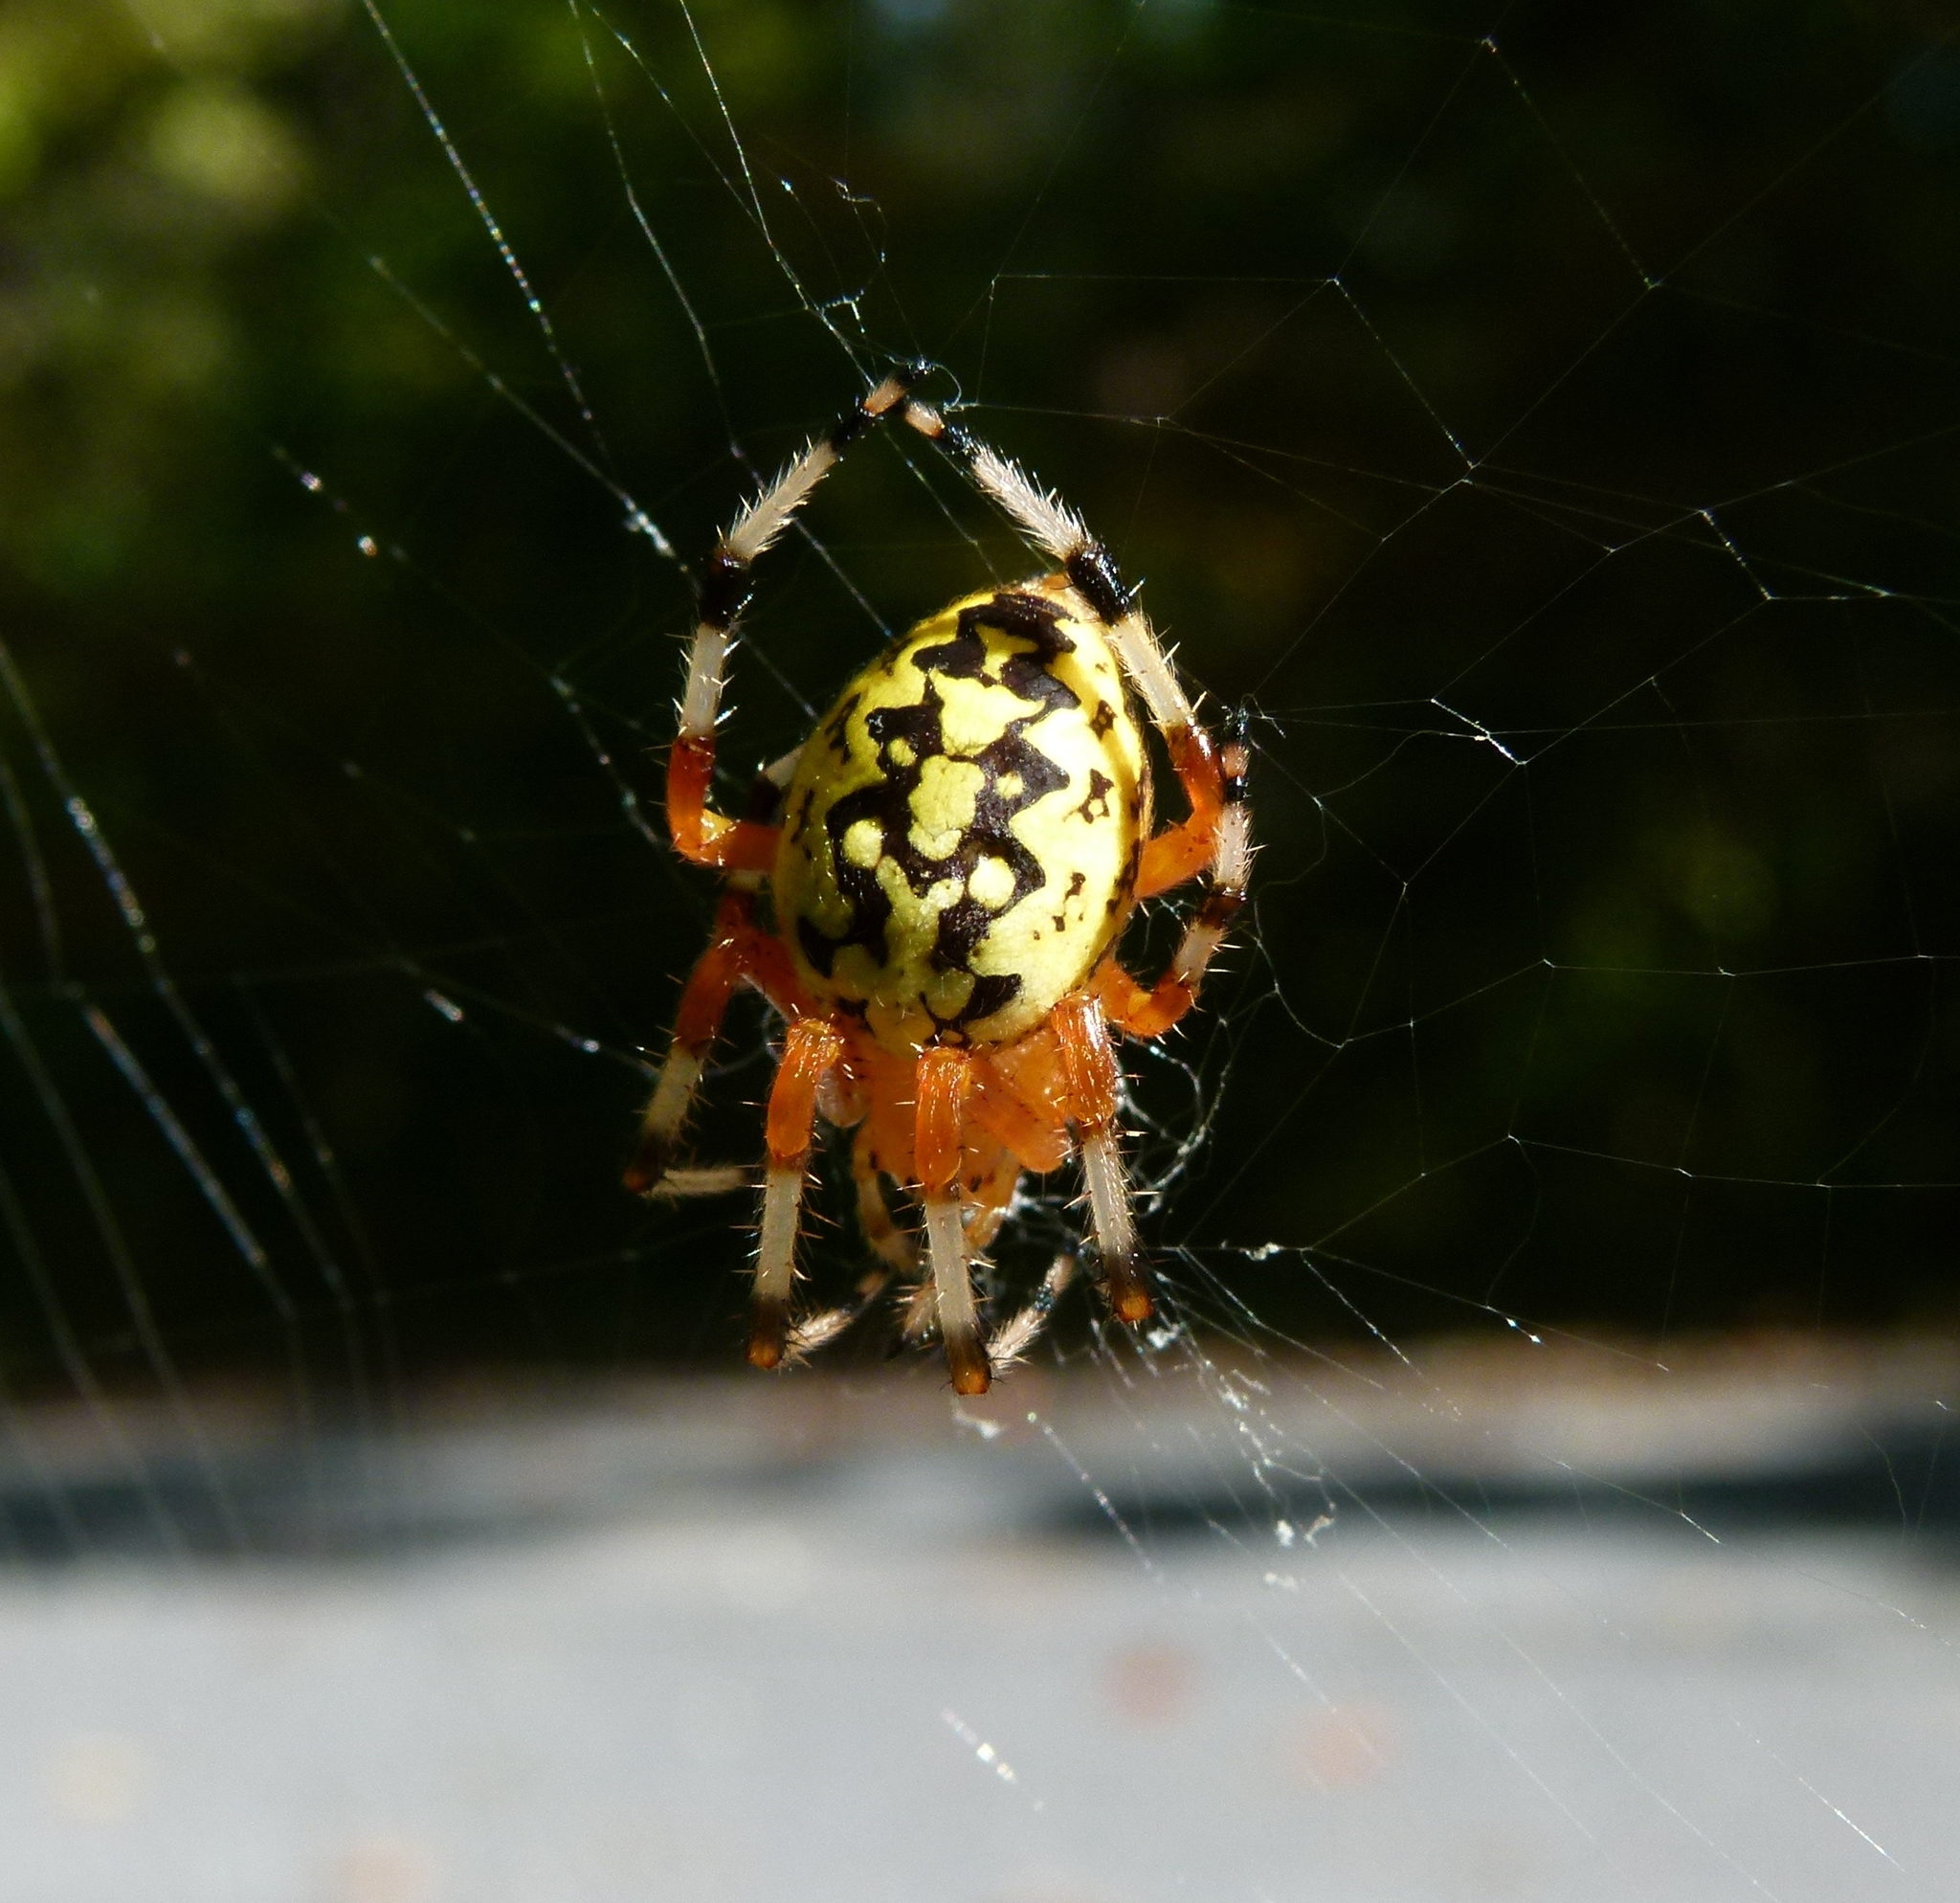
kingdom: Animalia
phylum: Arthropoda
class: Arachnida
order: Araneae
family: Araneidae
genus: Araneus
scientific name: Araneus marmoreus
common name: Marbled orbweaver
